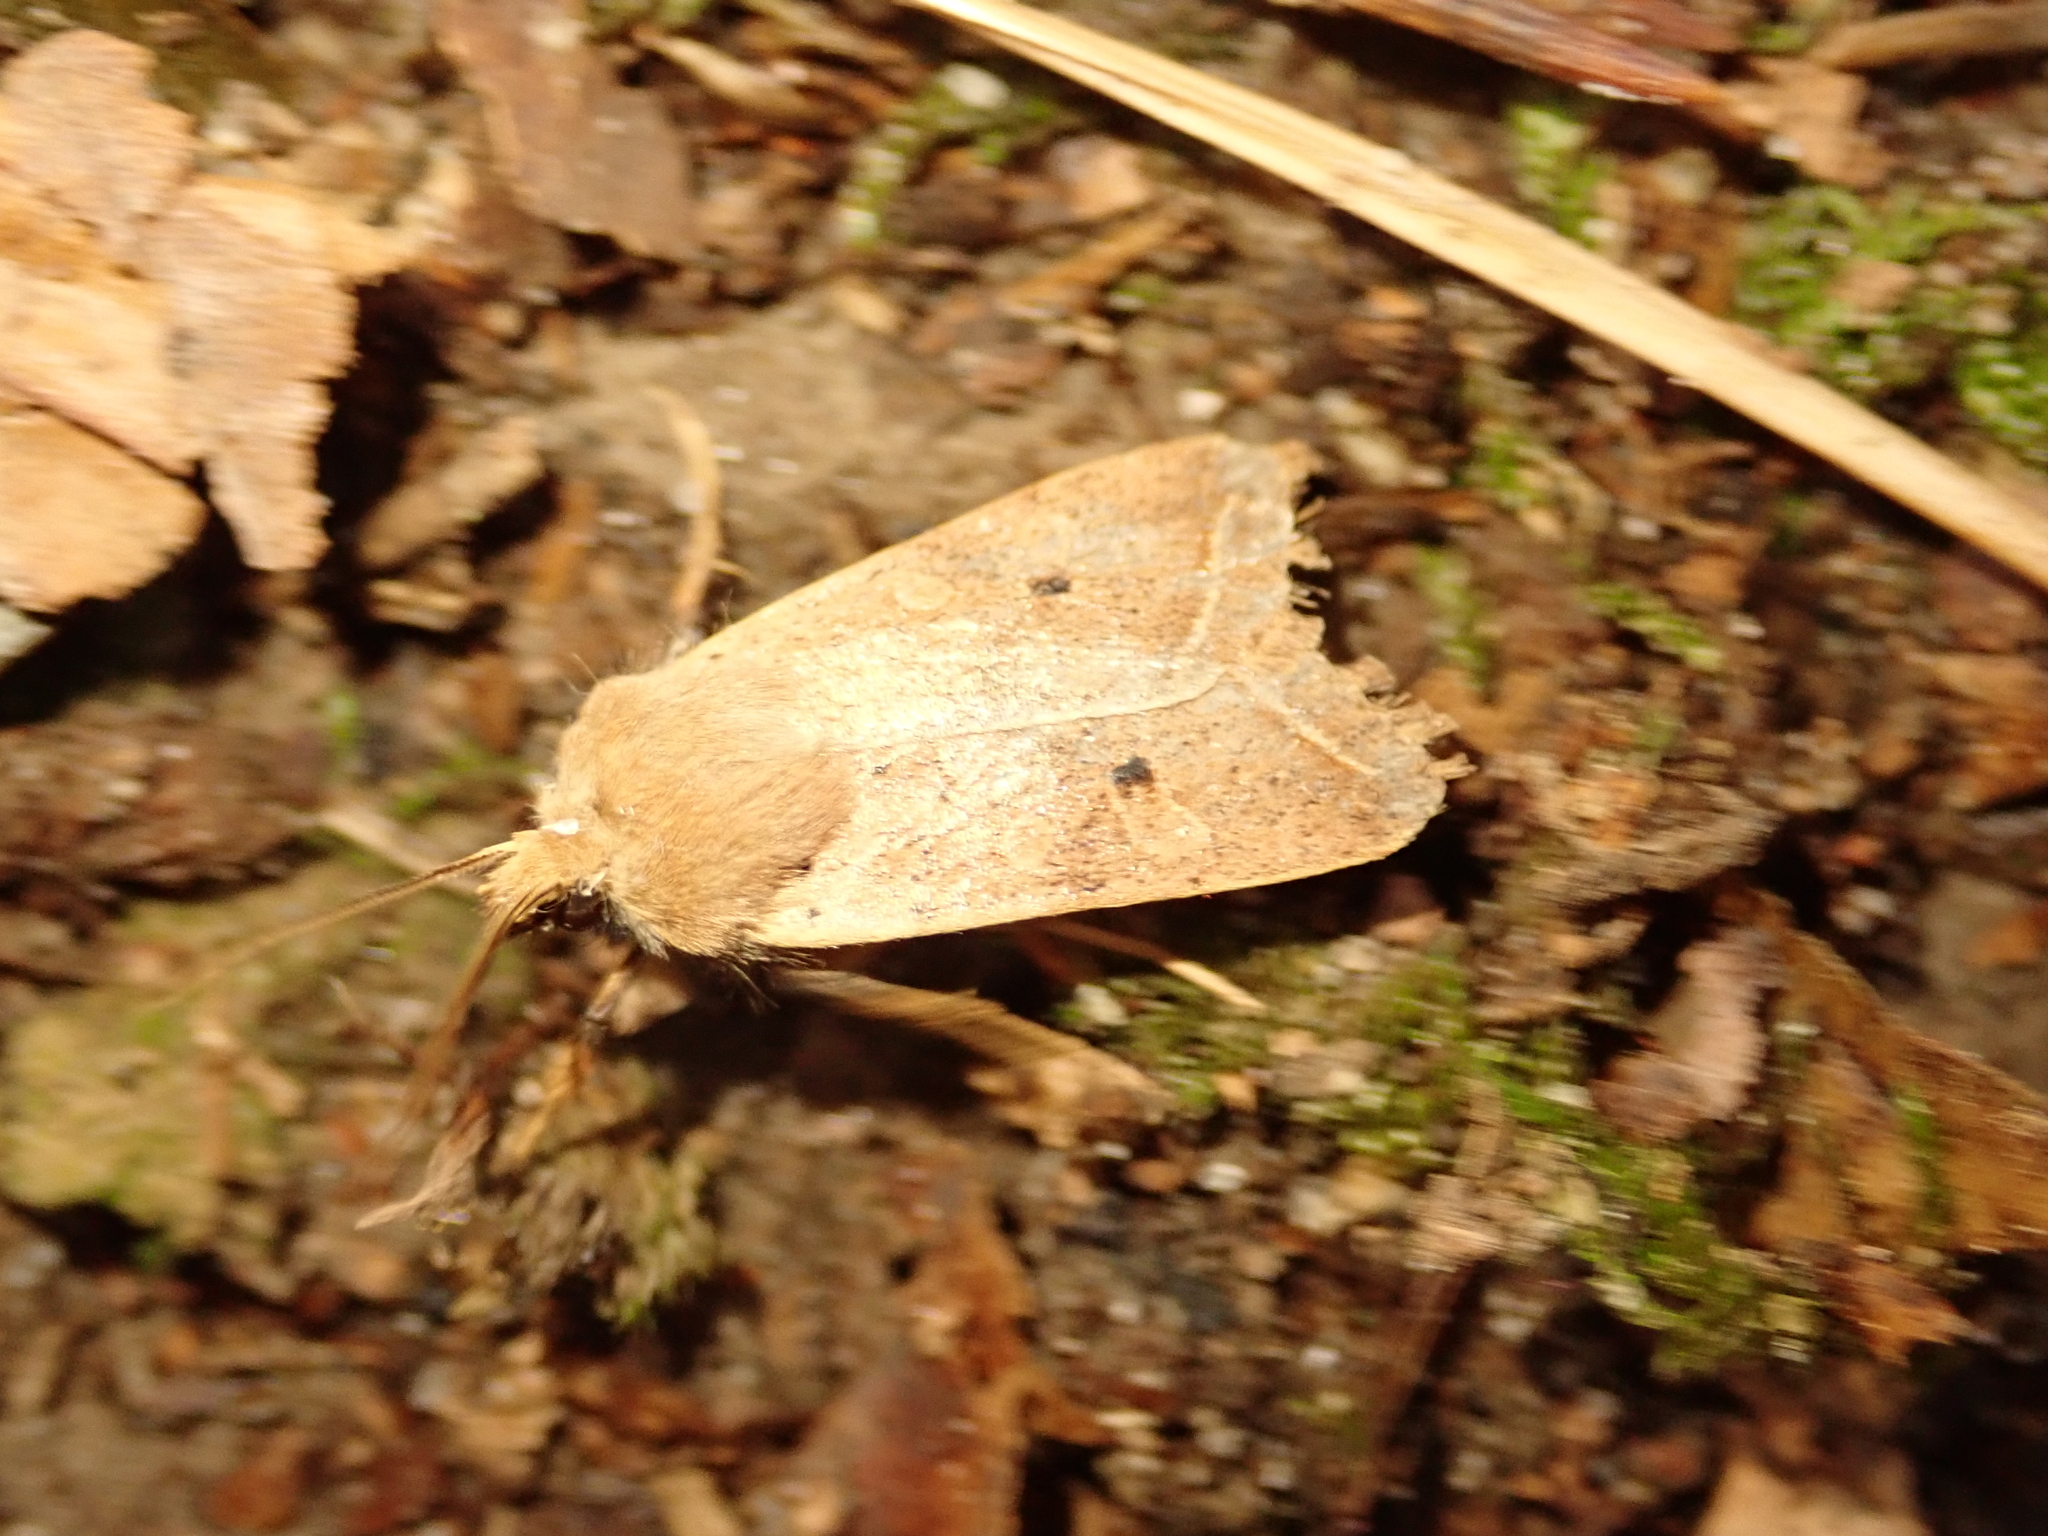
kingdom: Animalia
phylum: Arthropoda
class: Insecta
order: Lepidoptera
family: Noctuidae
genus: Agrochola
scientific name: Agrochola macilenta
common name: Yellow-line quaker
